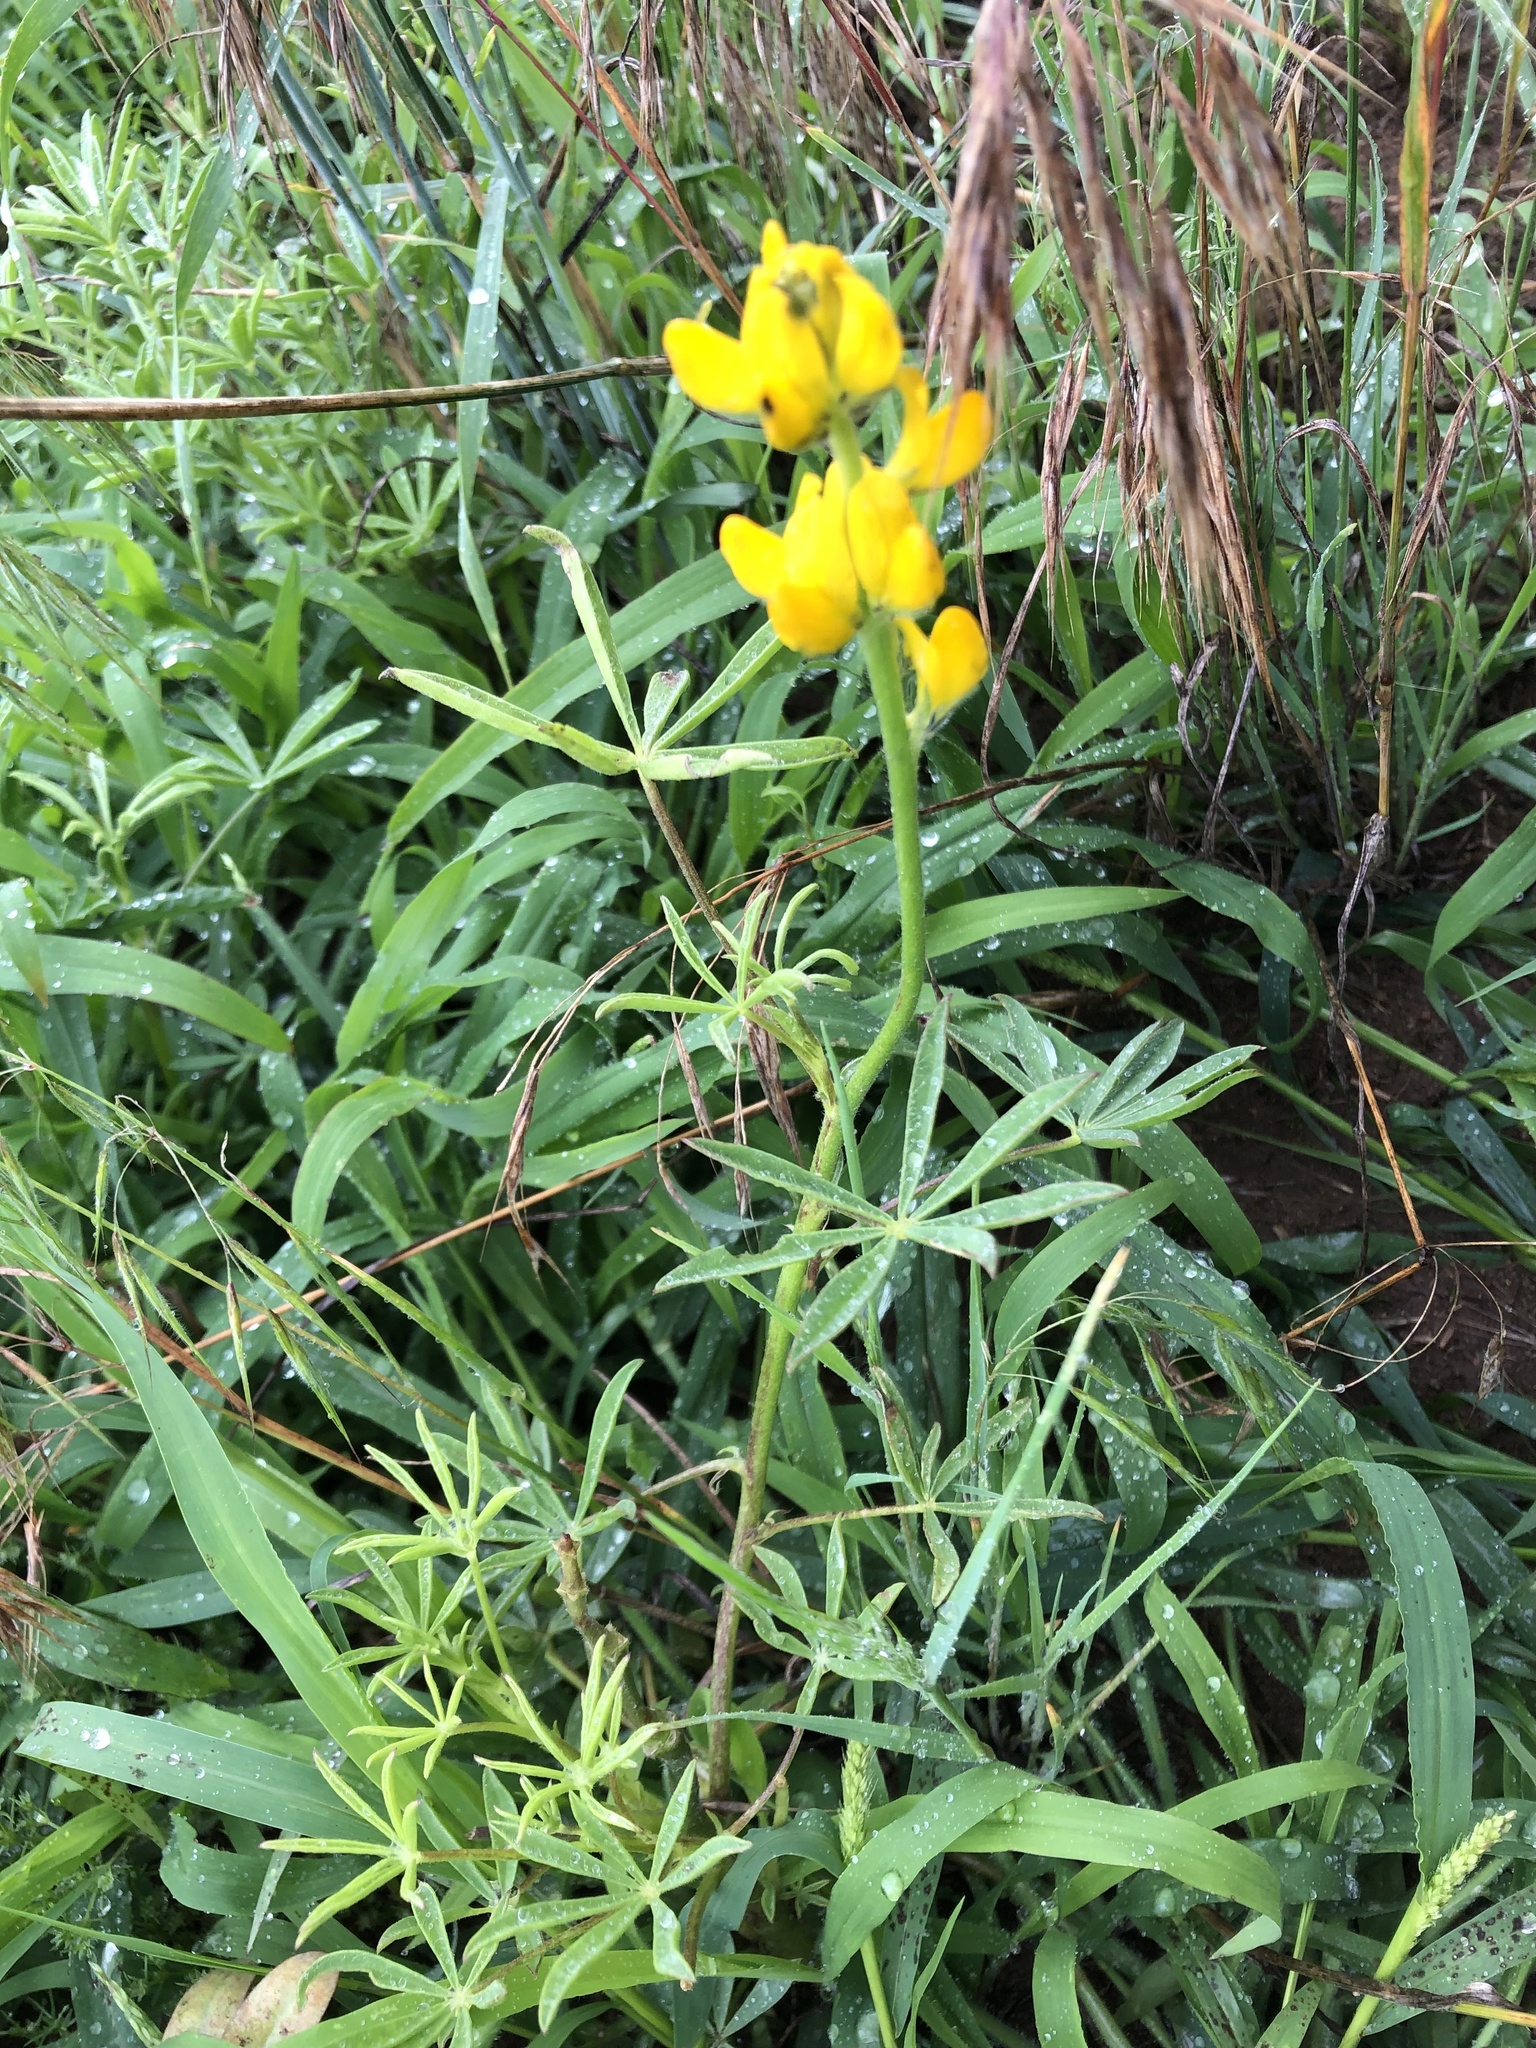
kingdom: Plantae
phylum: Tracheophyta
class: Magnoliopsida
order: Fabales
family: Fabaceae
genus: Lupinus
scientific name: Lupinus luteus
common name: European yellow lupine
